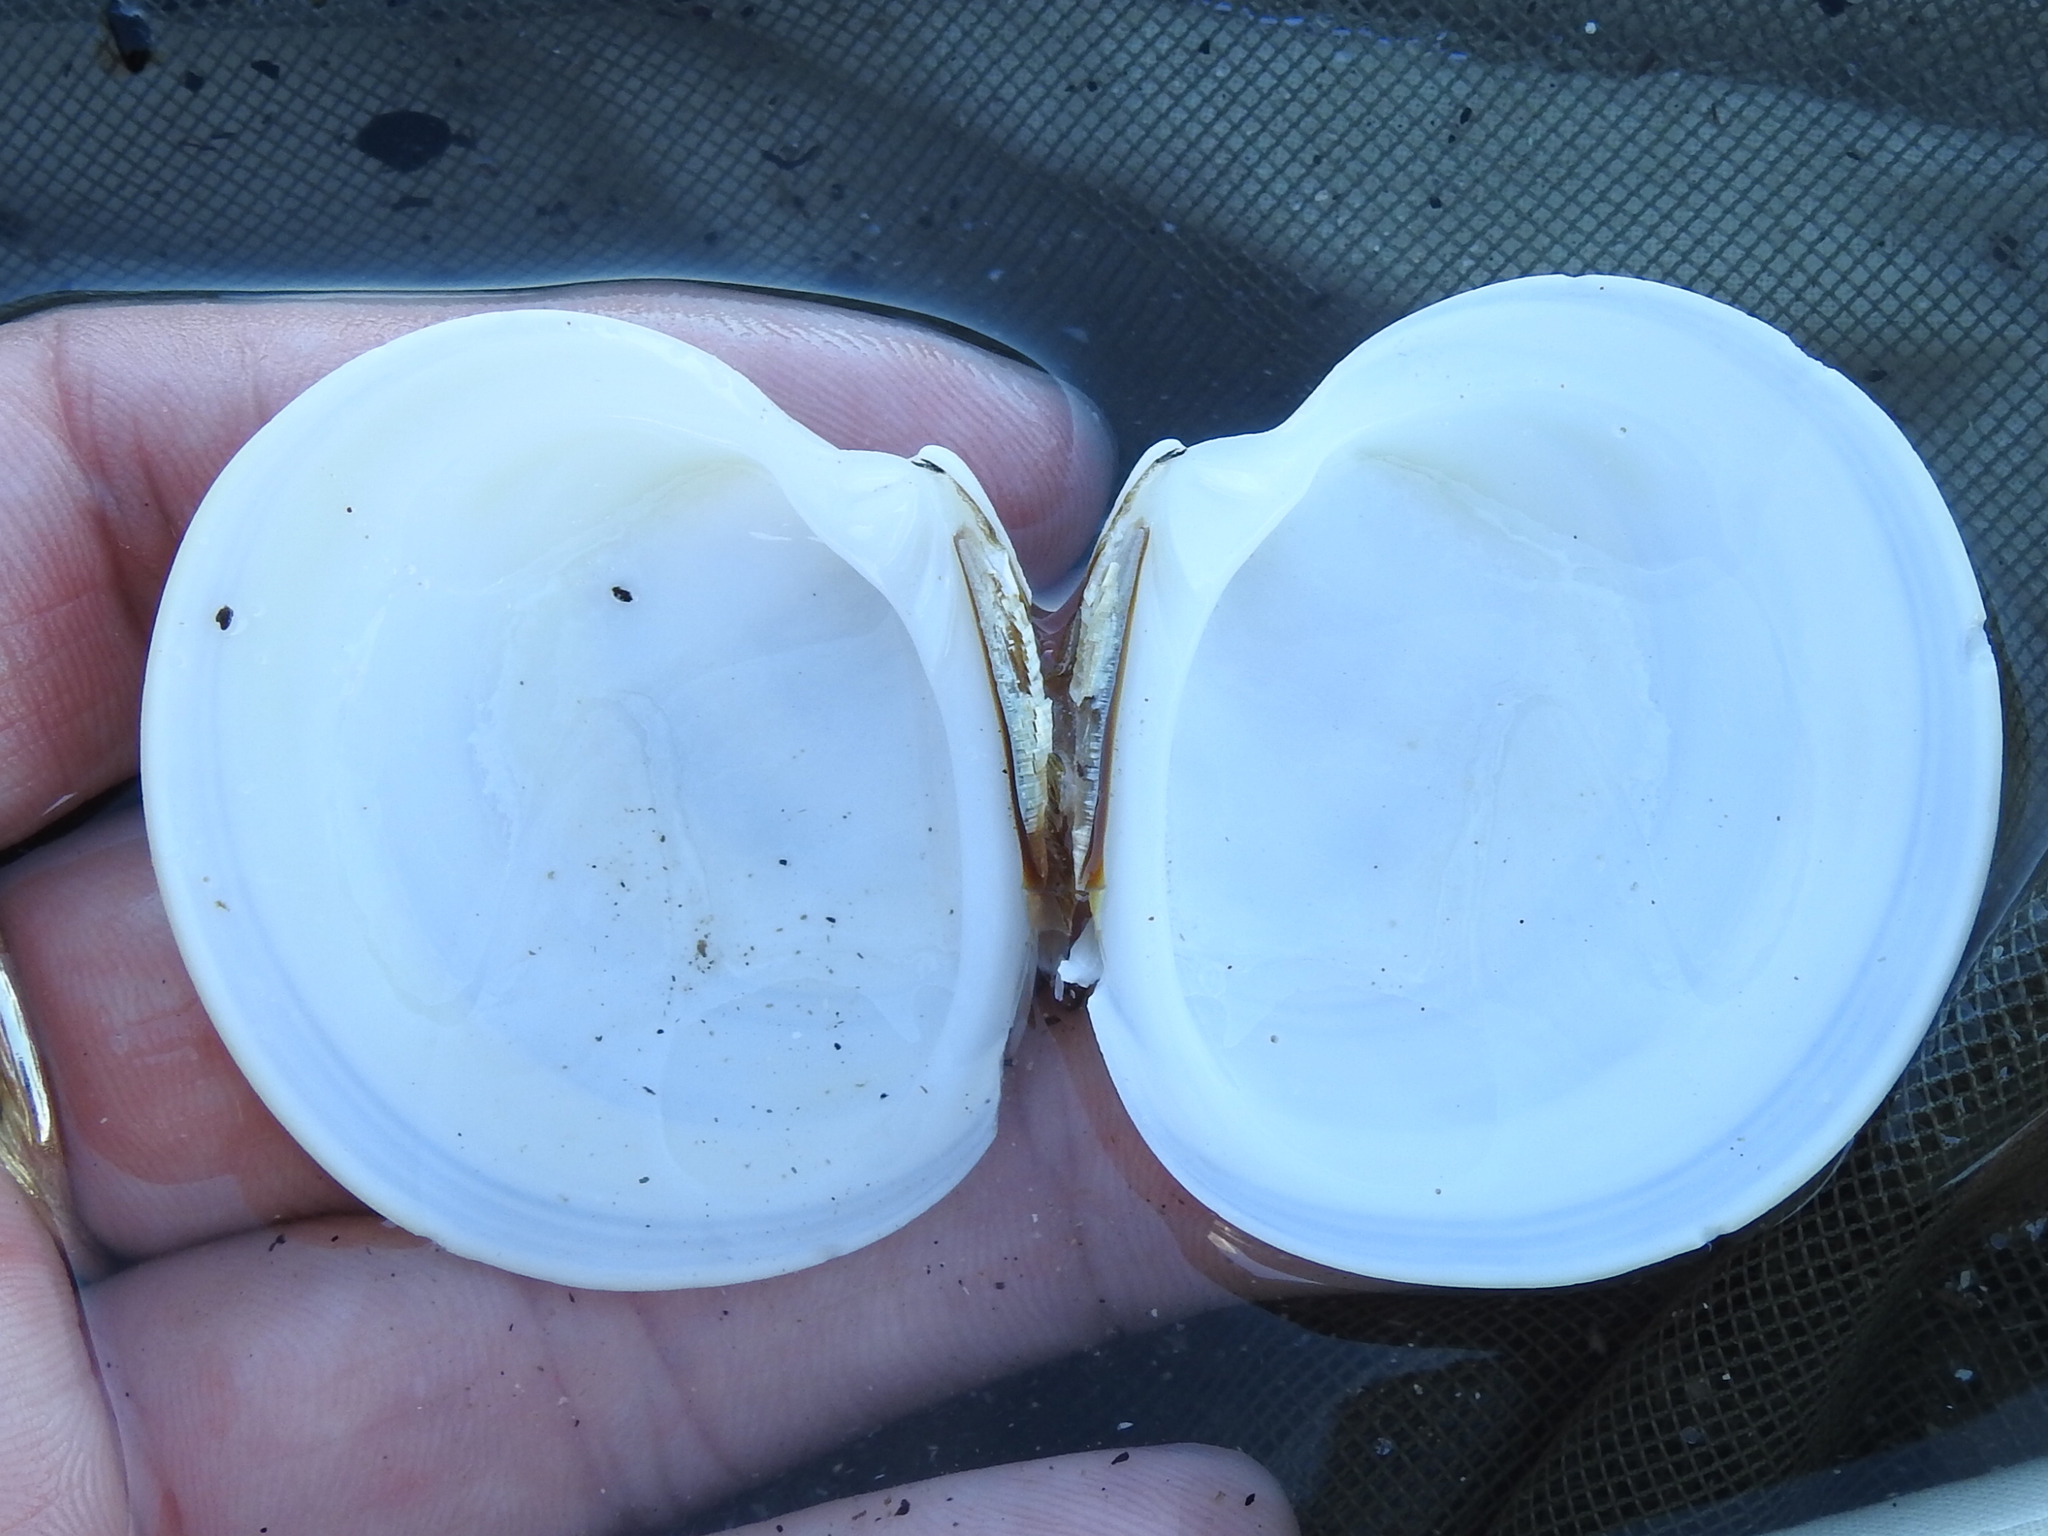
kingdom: Animalia
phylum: Mollusca
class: Bivalvia
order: Venerida
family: Veneridae
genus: Dosinia
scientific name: Dosinia discus
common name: Disk dosinia
